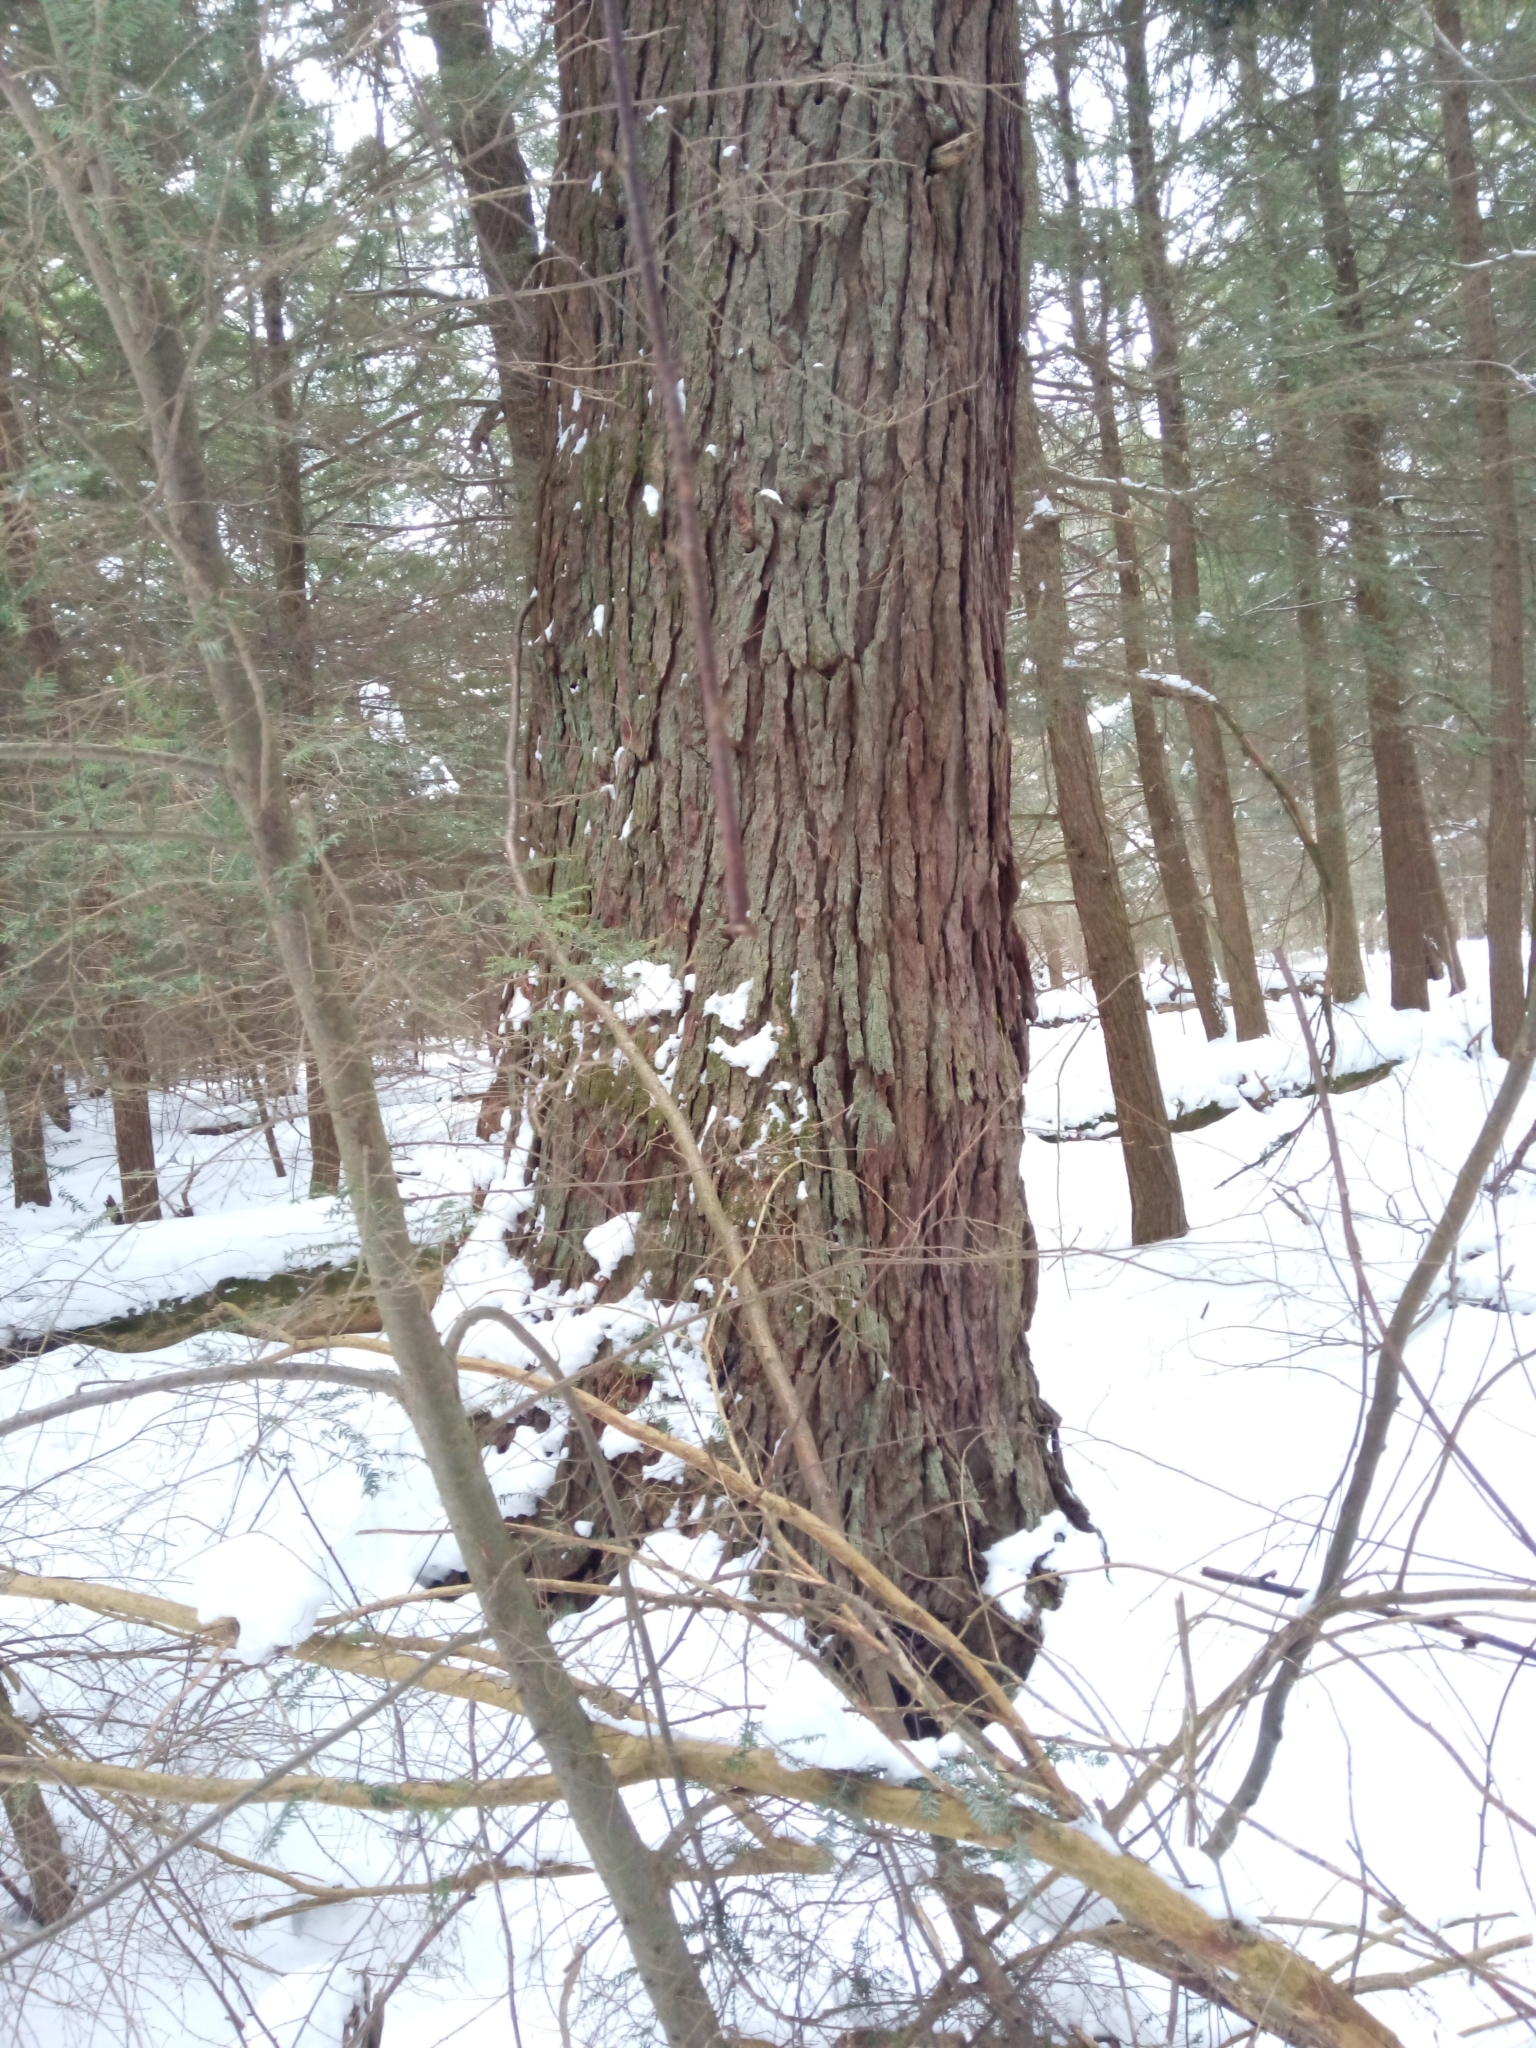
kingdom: Plantae
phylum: Tracheophyta
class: Pinopsida
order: Pinales
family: Pinaceae
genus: Tsuga
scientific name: Tsuga canadensis
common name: Eastern hemlock
